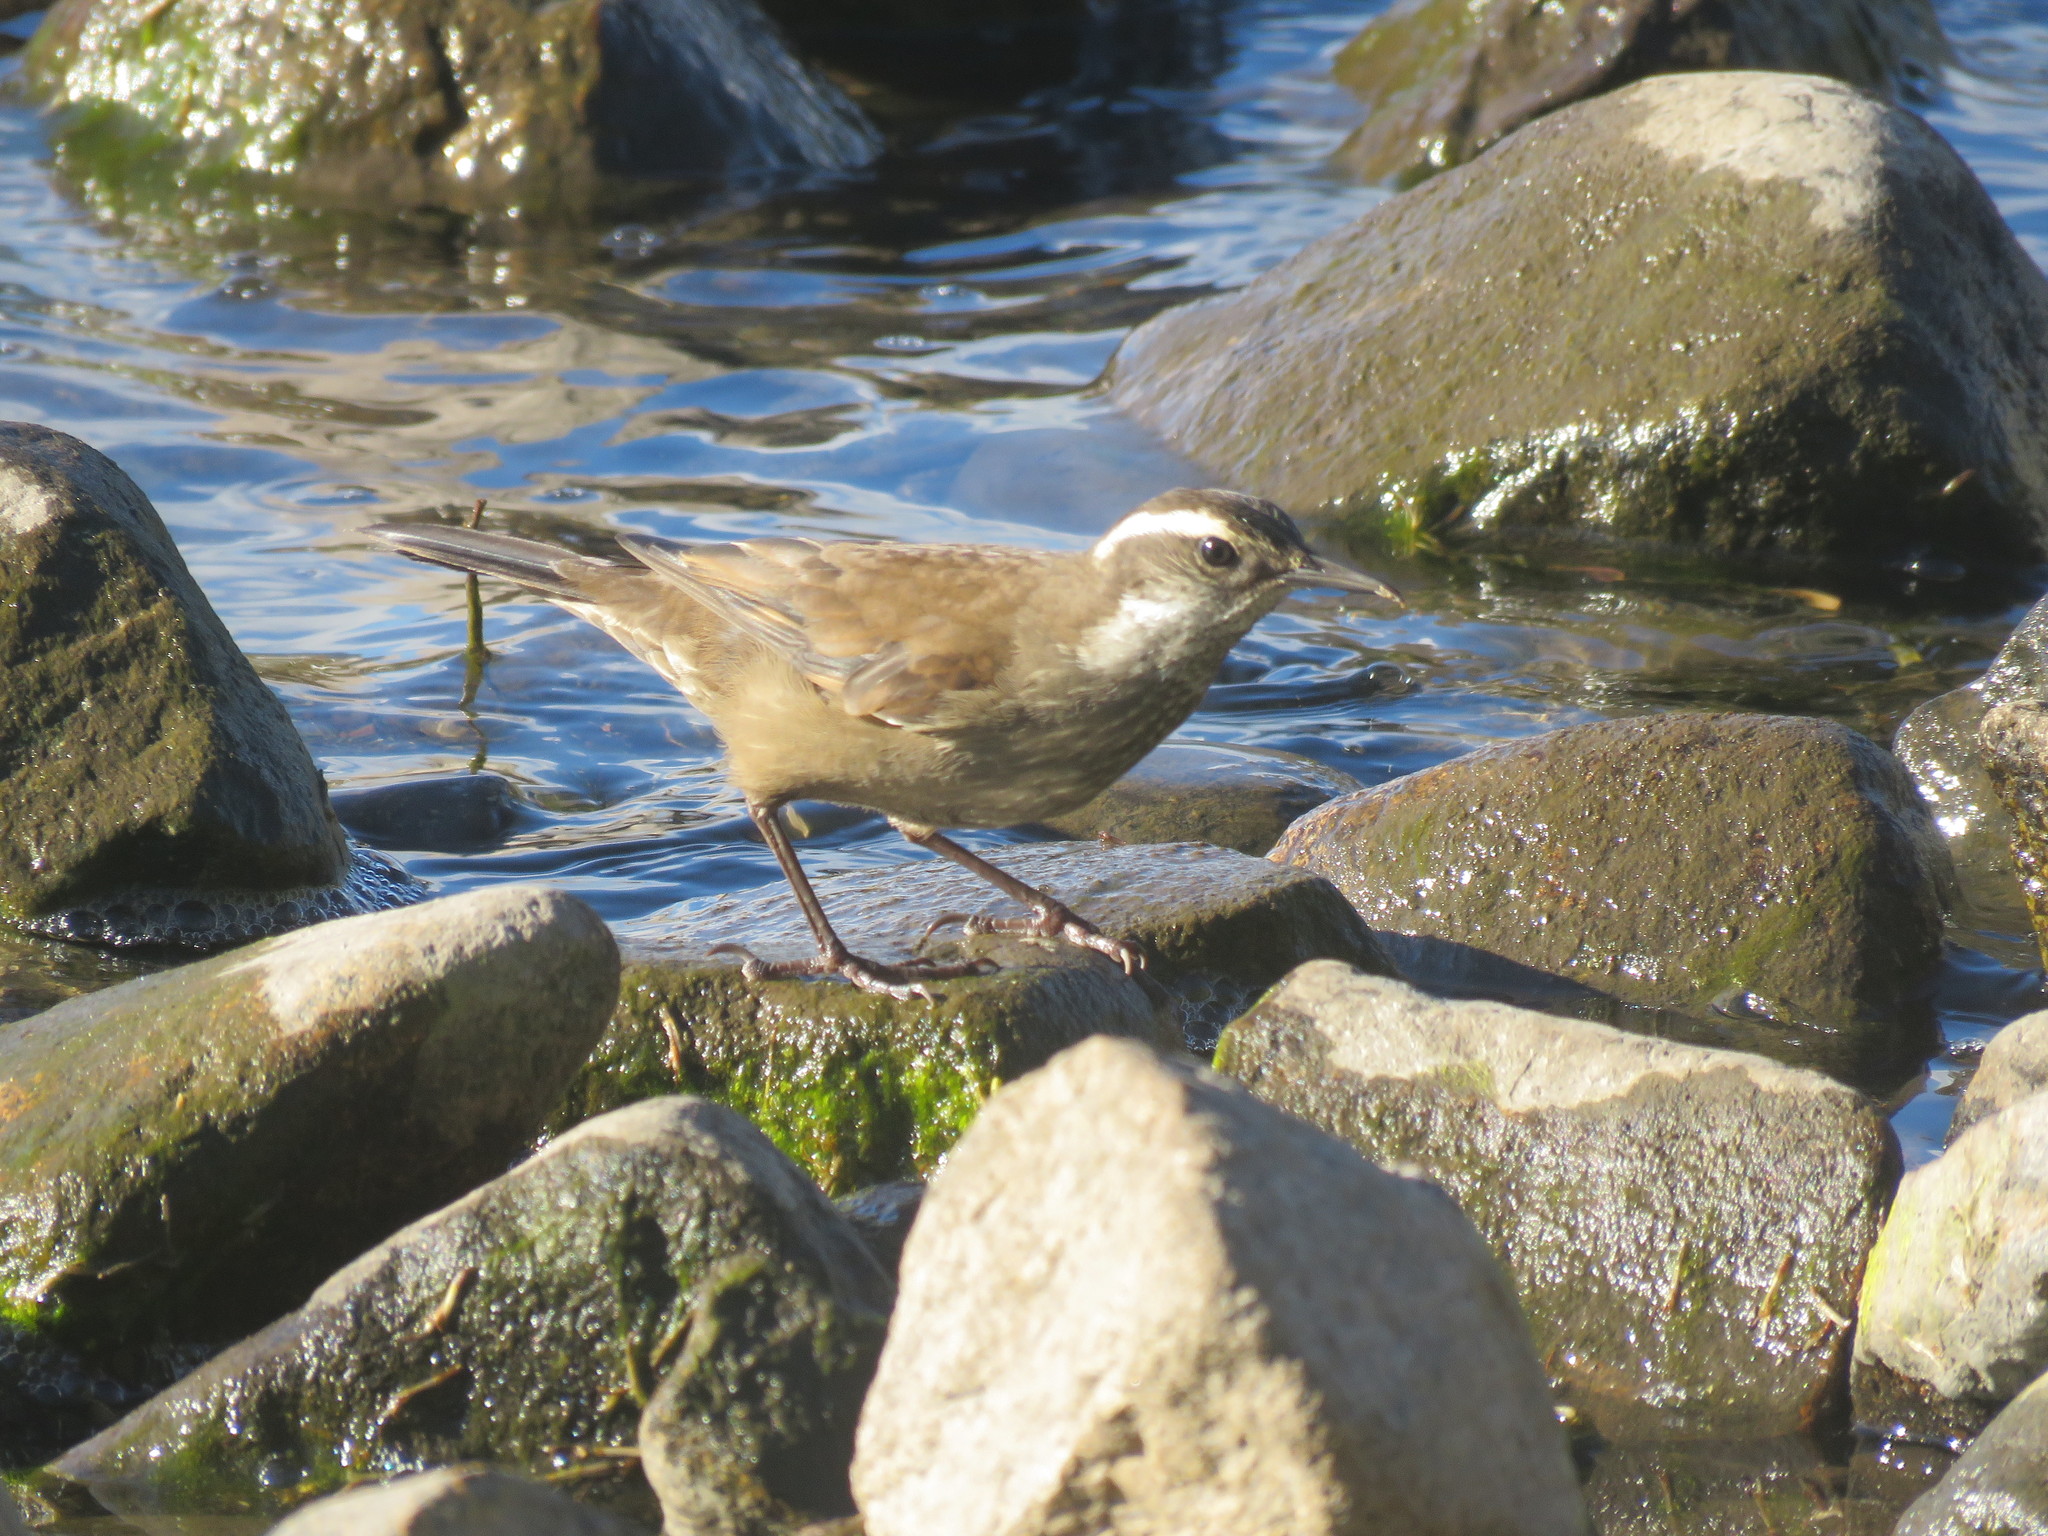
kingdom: Animalia
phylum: Chordata
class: Aves
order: Passeriformes
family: Furnariidae
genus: Cinclodes
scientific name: Cinclodes patagonicus
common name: Dark-bellied cinclodes
